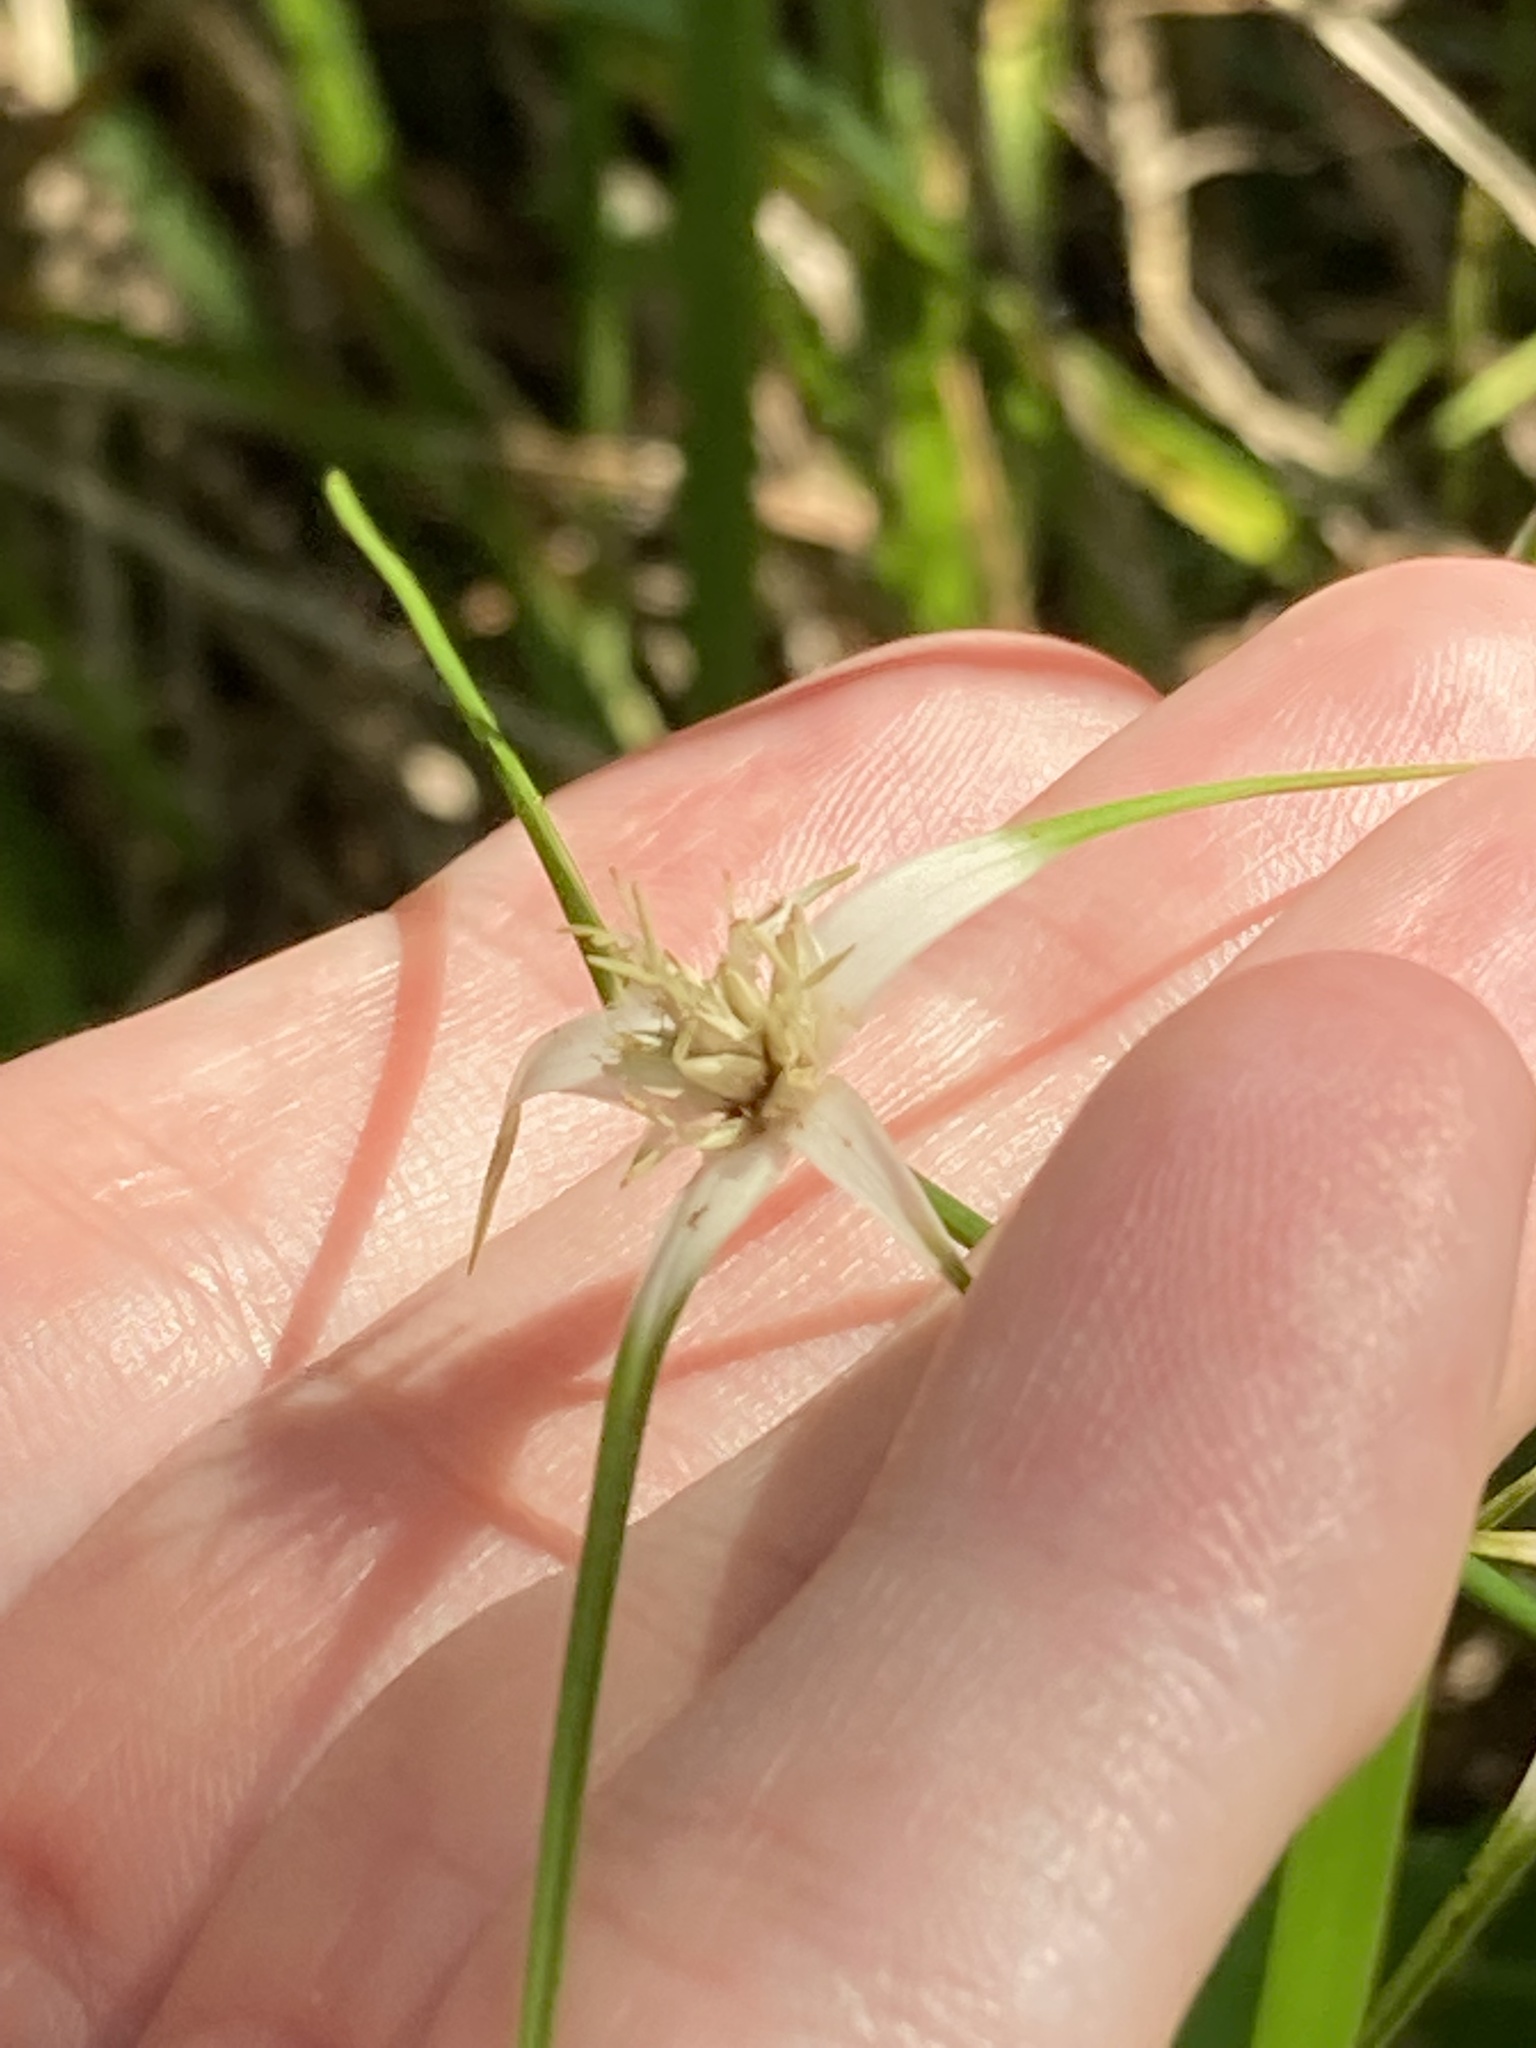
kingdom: Plantae
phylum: Tracheophyta
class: Liliopsida
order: Poales
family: Cyperaceae
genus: Rhynchospora
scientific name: Rhynchospora colorata
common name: Star sedge
